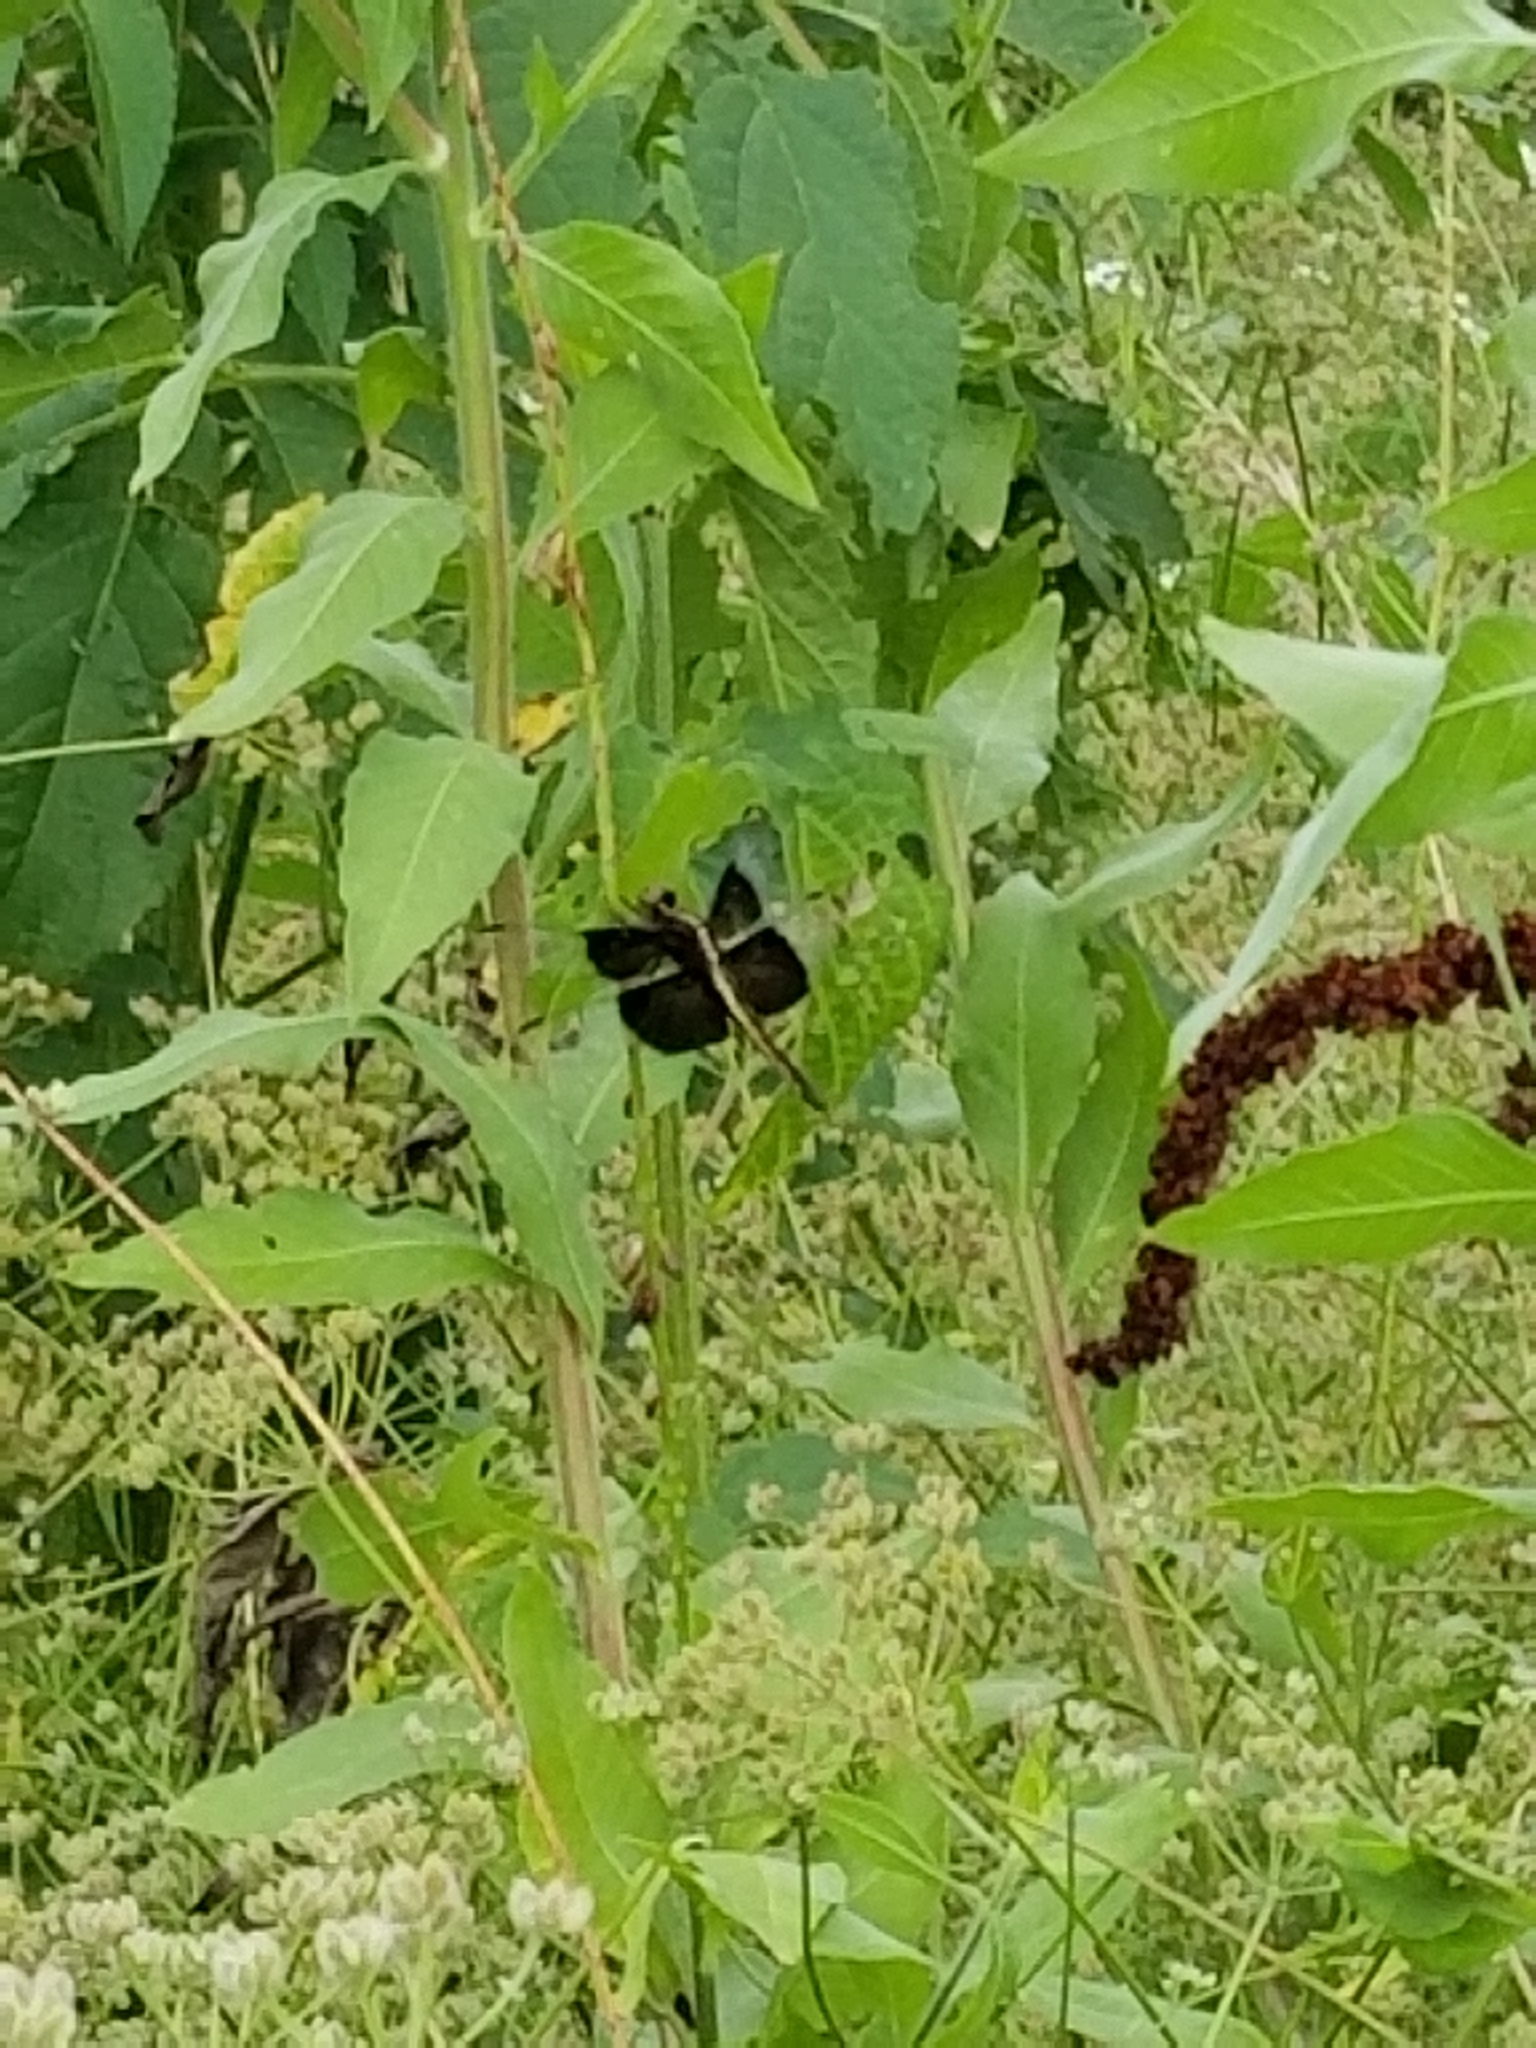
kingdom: Animalia
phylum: Arthropoda
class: Insecta
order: Odonata
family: Libellulidae
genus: Libellula
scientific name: Libellula luctuosa
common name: Widow skimmer
